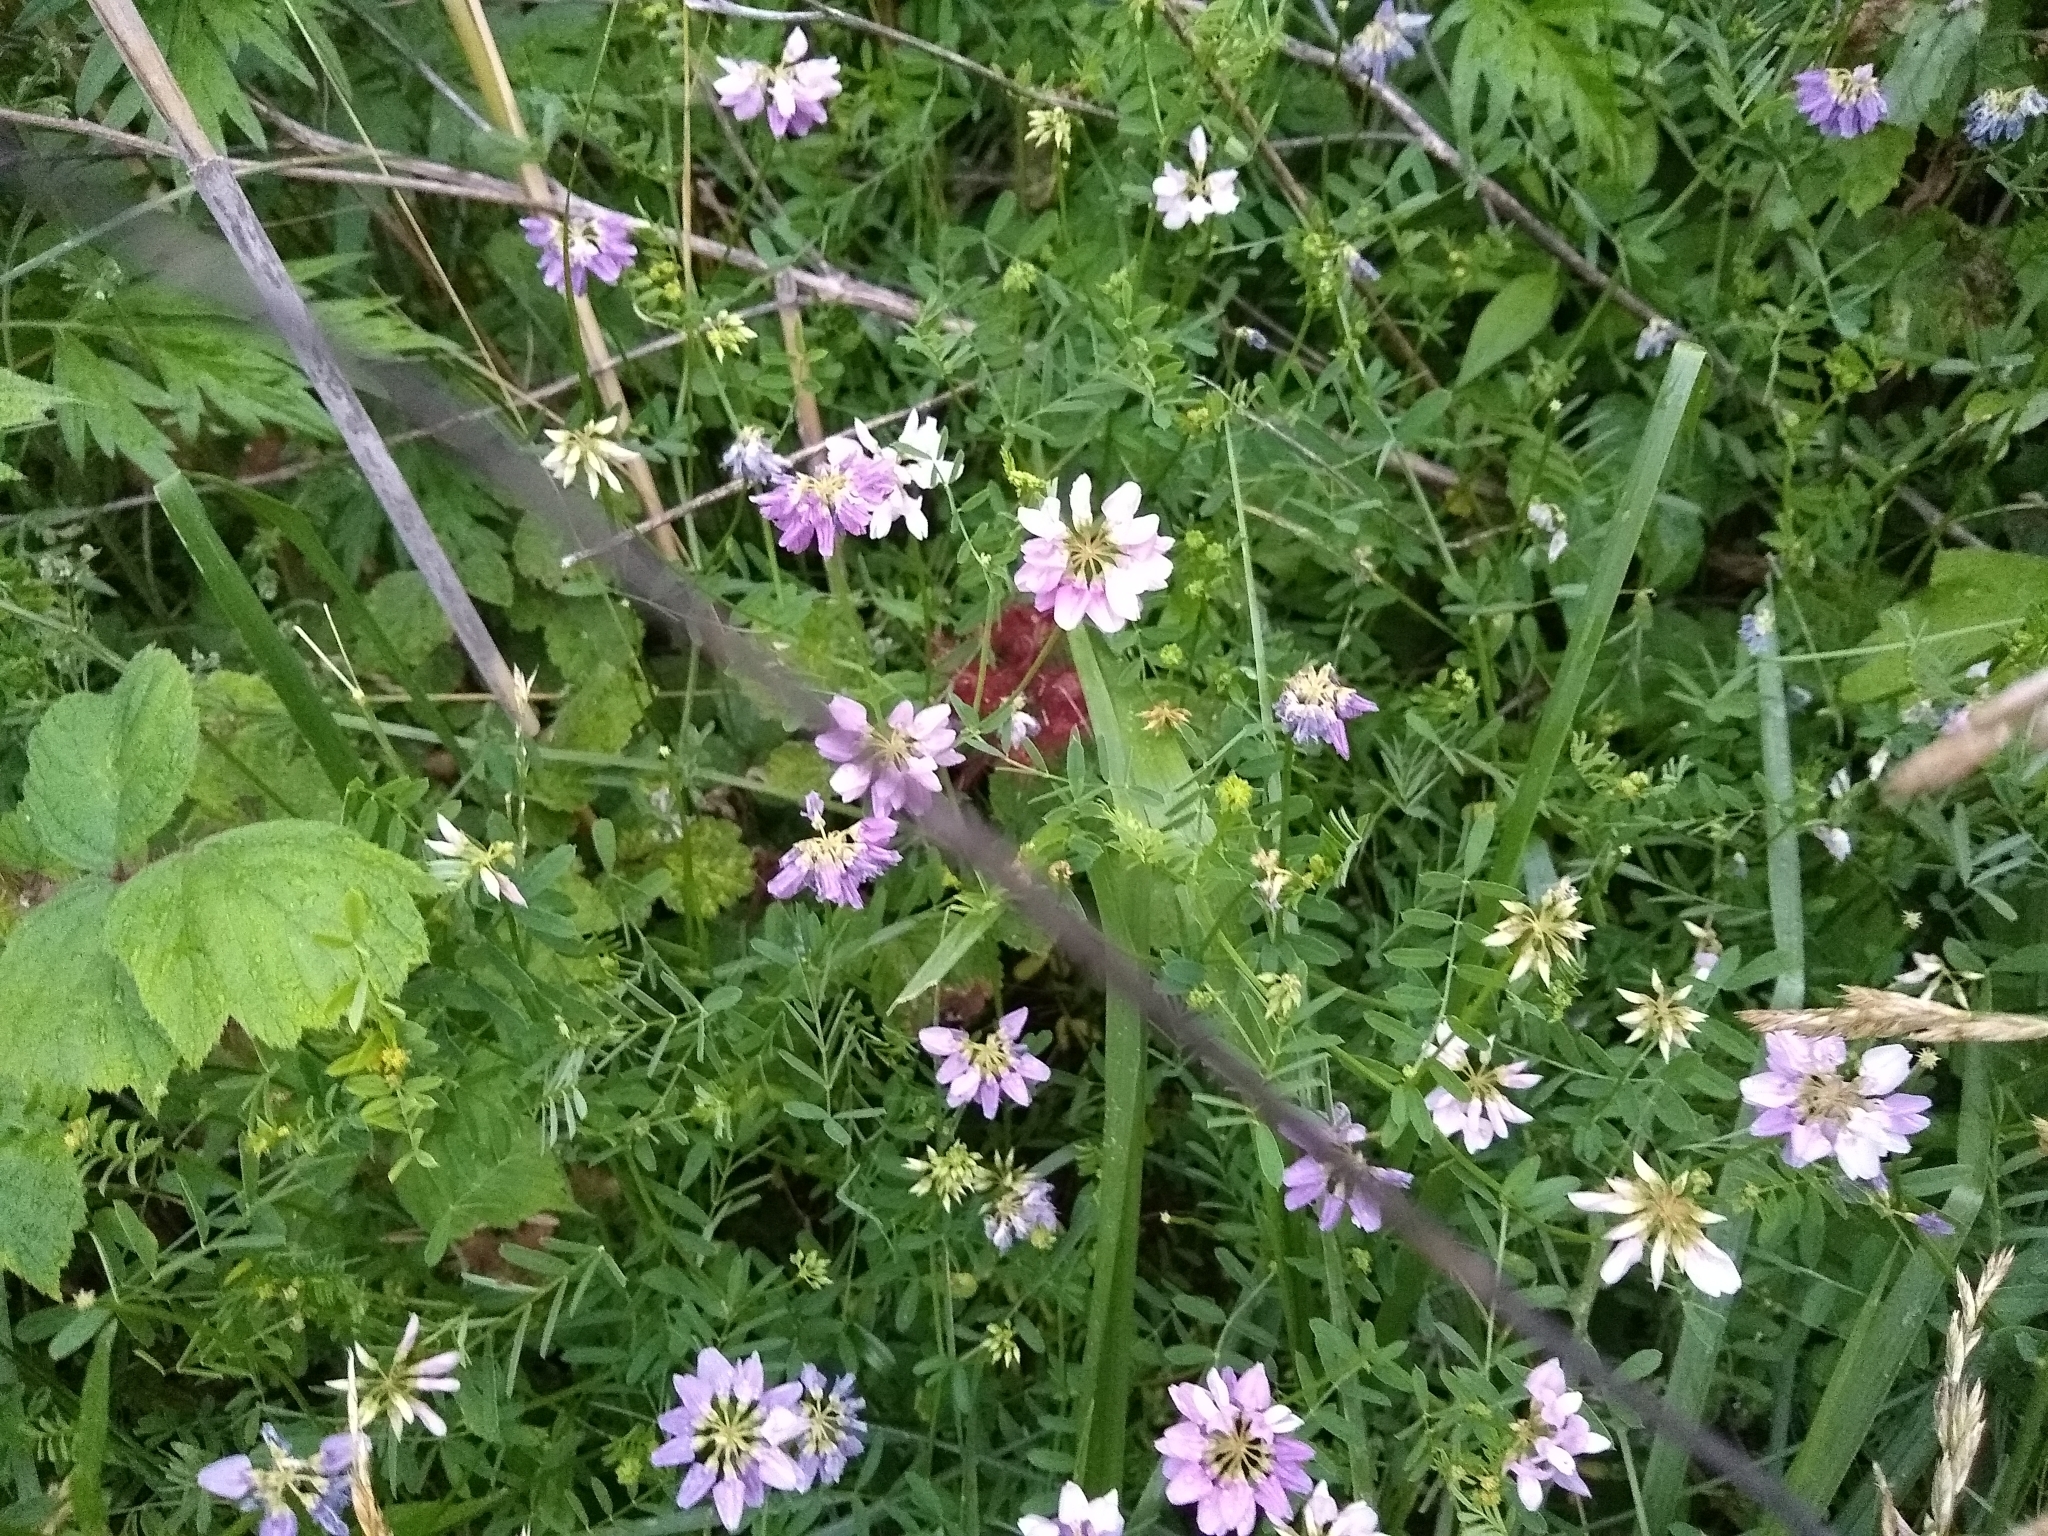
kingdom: Plantae
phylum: Tracheophyta
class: Magnoliopsida
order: Fabales
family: Fabaceae
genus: Coronilla
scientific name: Coronilla varia
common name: Crownvetch
